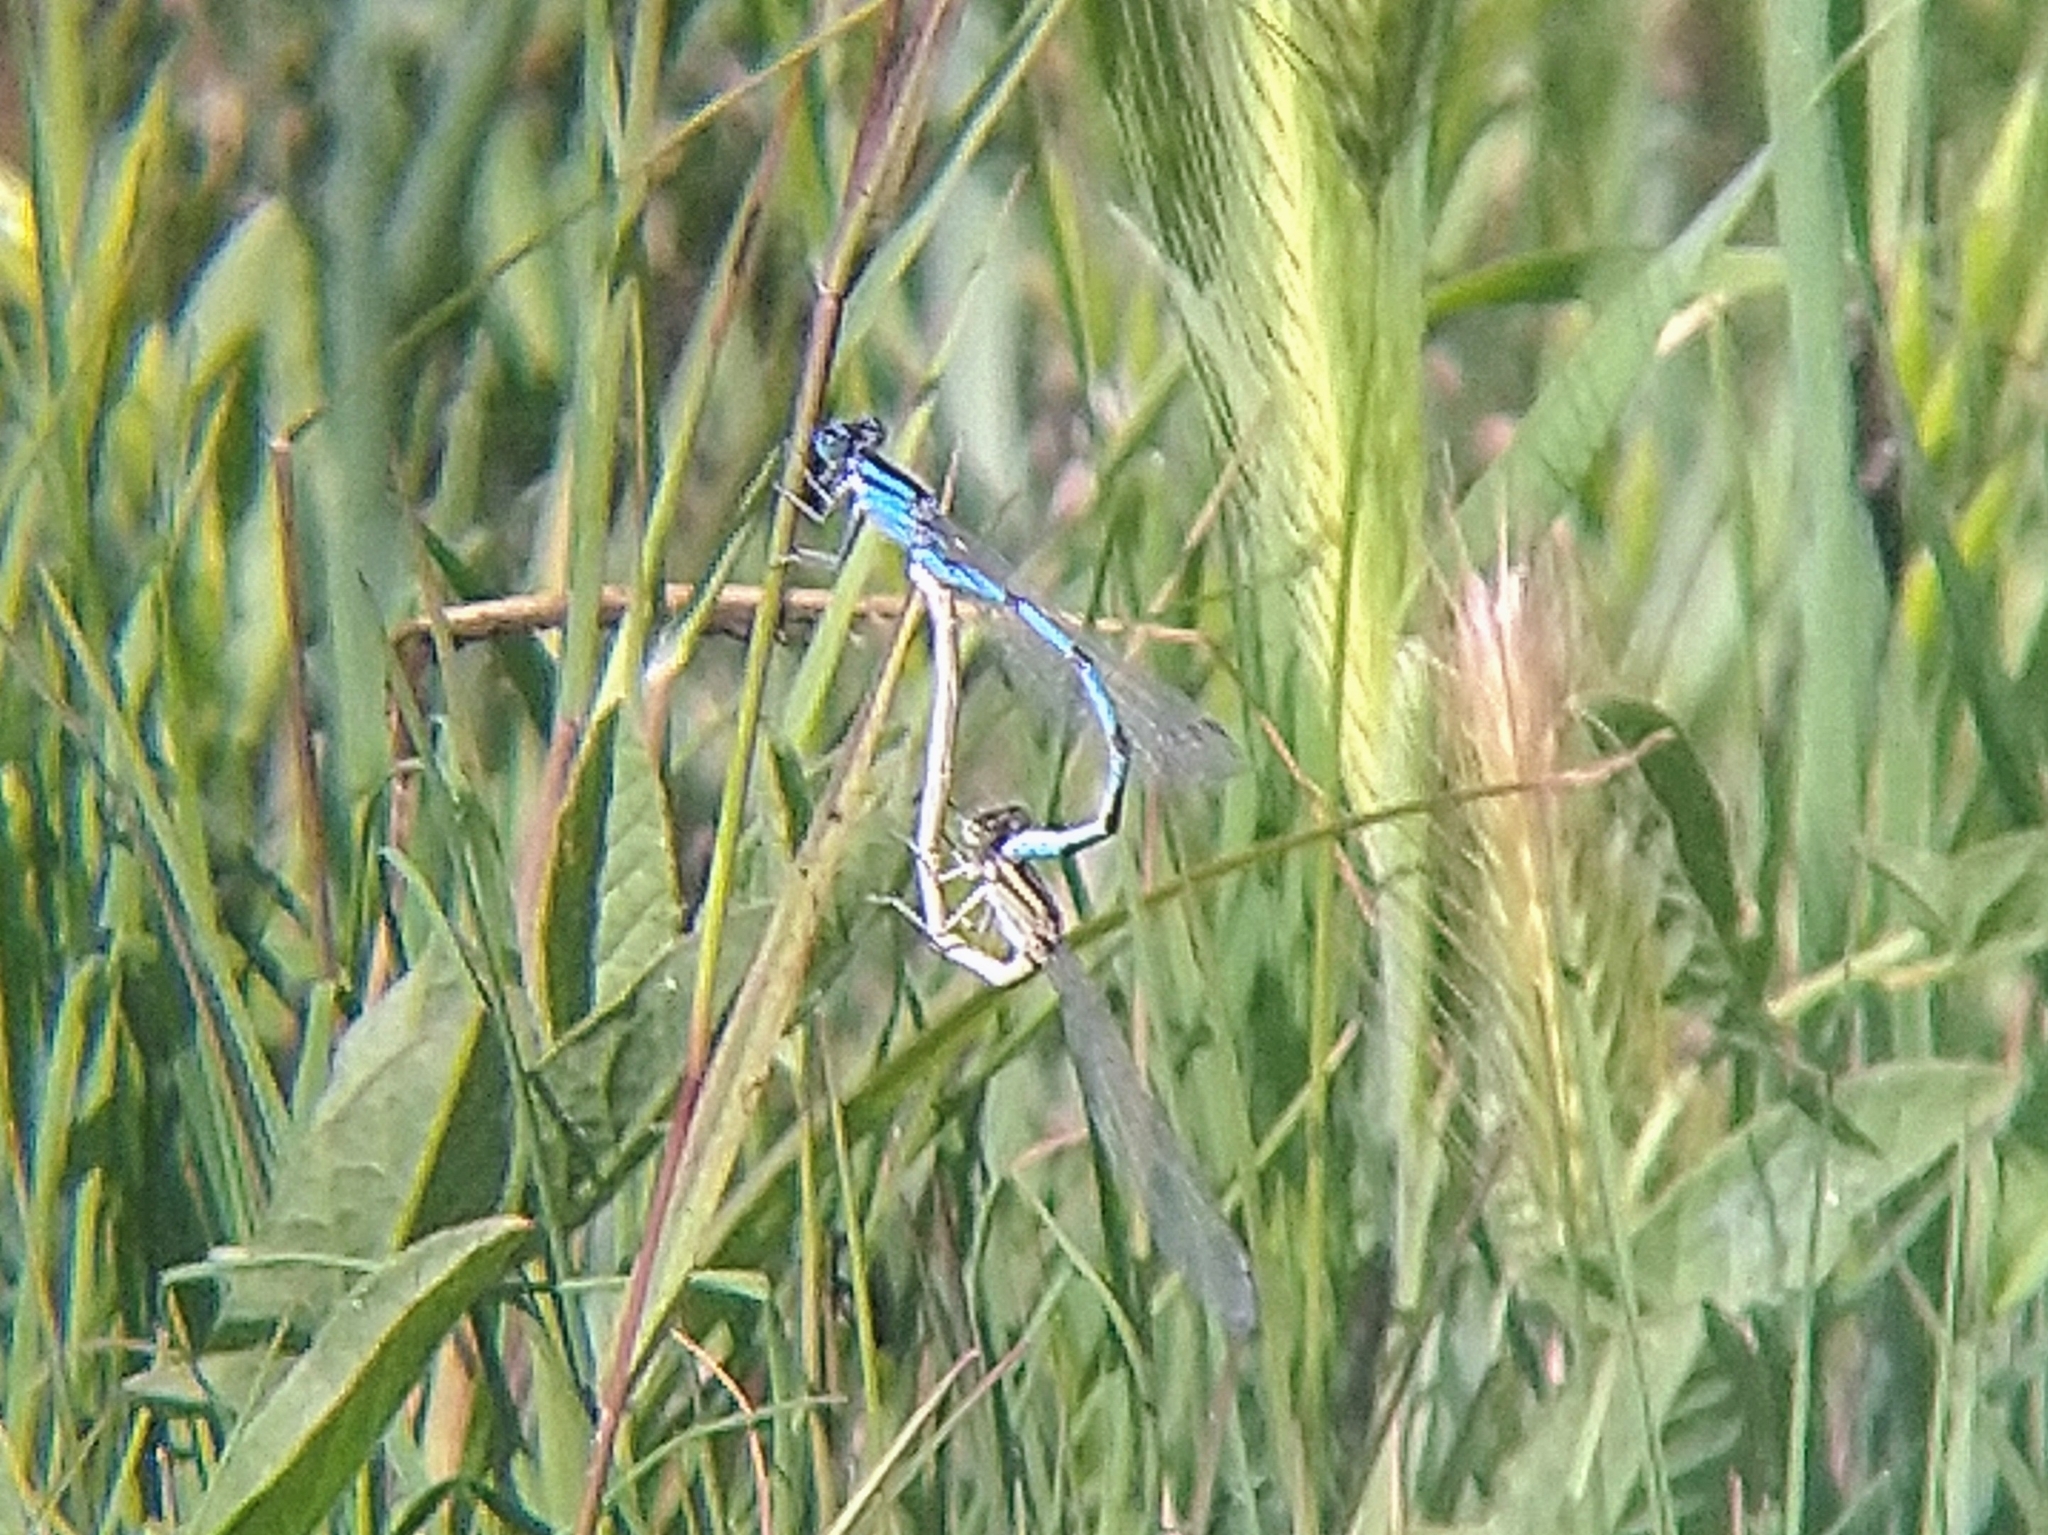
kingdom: Animalia
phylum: Arthropoda
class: Insecta
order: Odonata
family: Coenagrionidae
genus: Enallagma
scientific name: Enallagma
